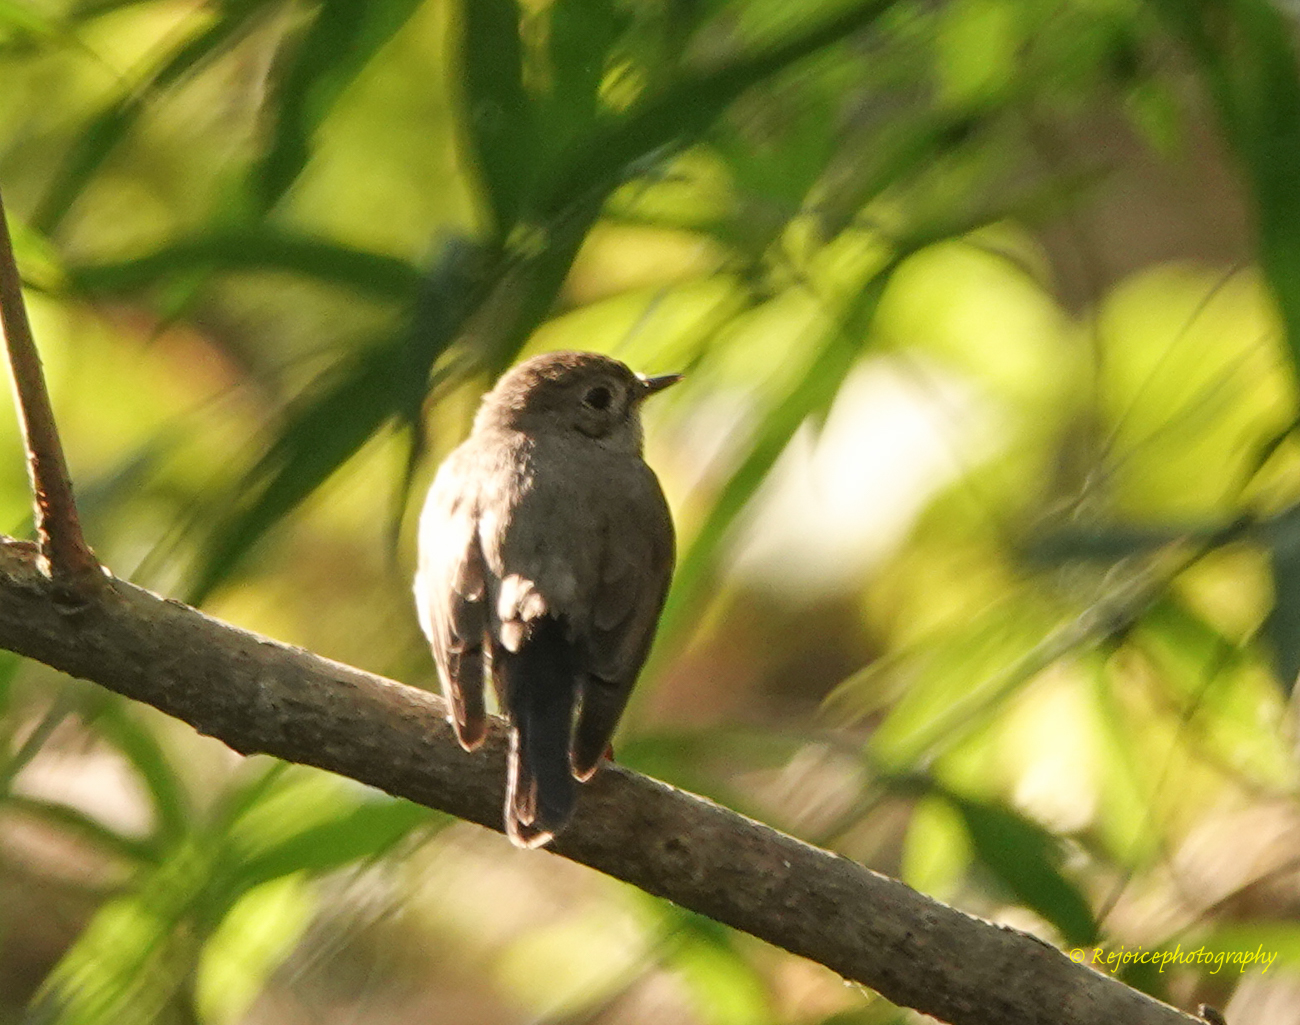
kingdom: Animalia
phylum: Chordata
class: Aves
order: Passeriformes
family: Muscicapidae
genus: Ficedula
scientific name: Ficedula albicilla
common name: Taiga flycatcher
